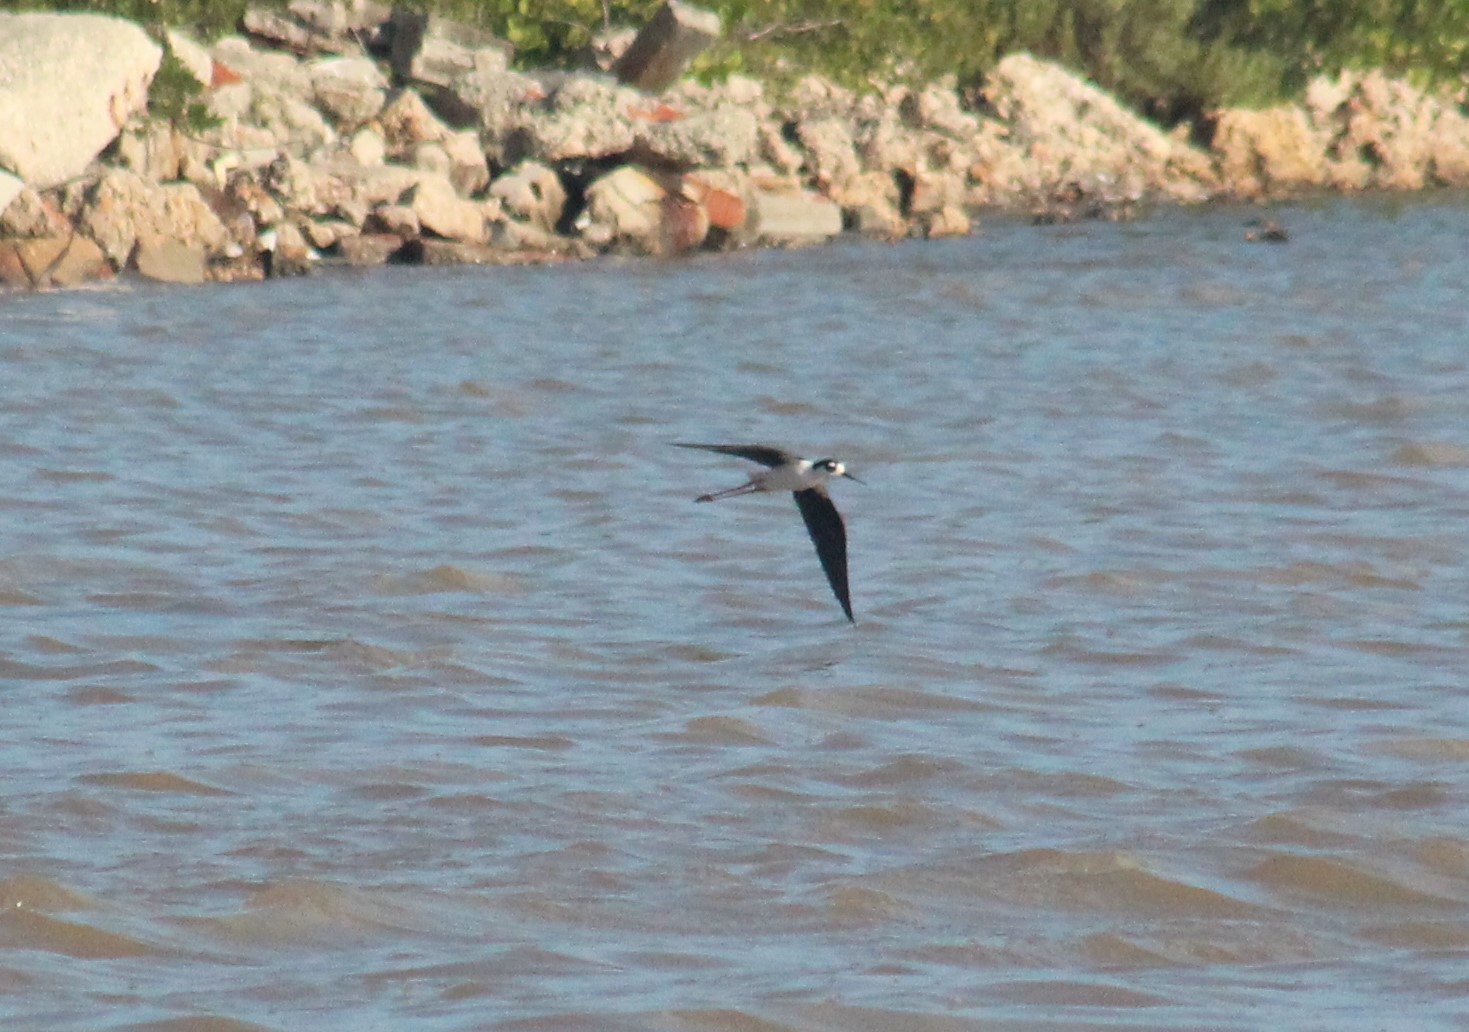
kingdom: Animalia
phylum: Chordata
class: Aves
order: Charadriiformes
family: Recurvirostridae
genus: Himantopus
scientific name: Himantopus mexicanus
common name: Black-necked stilt
